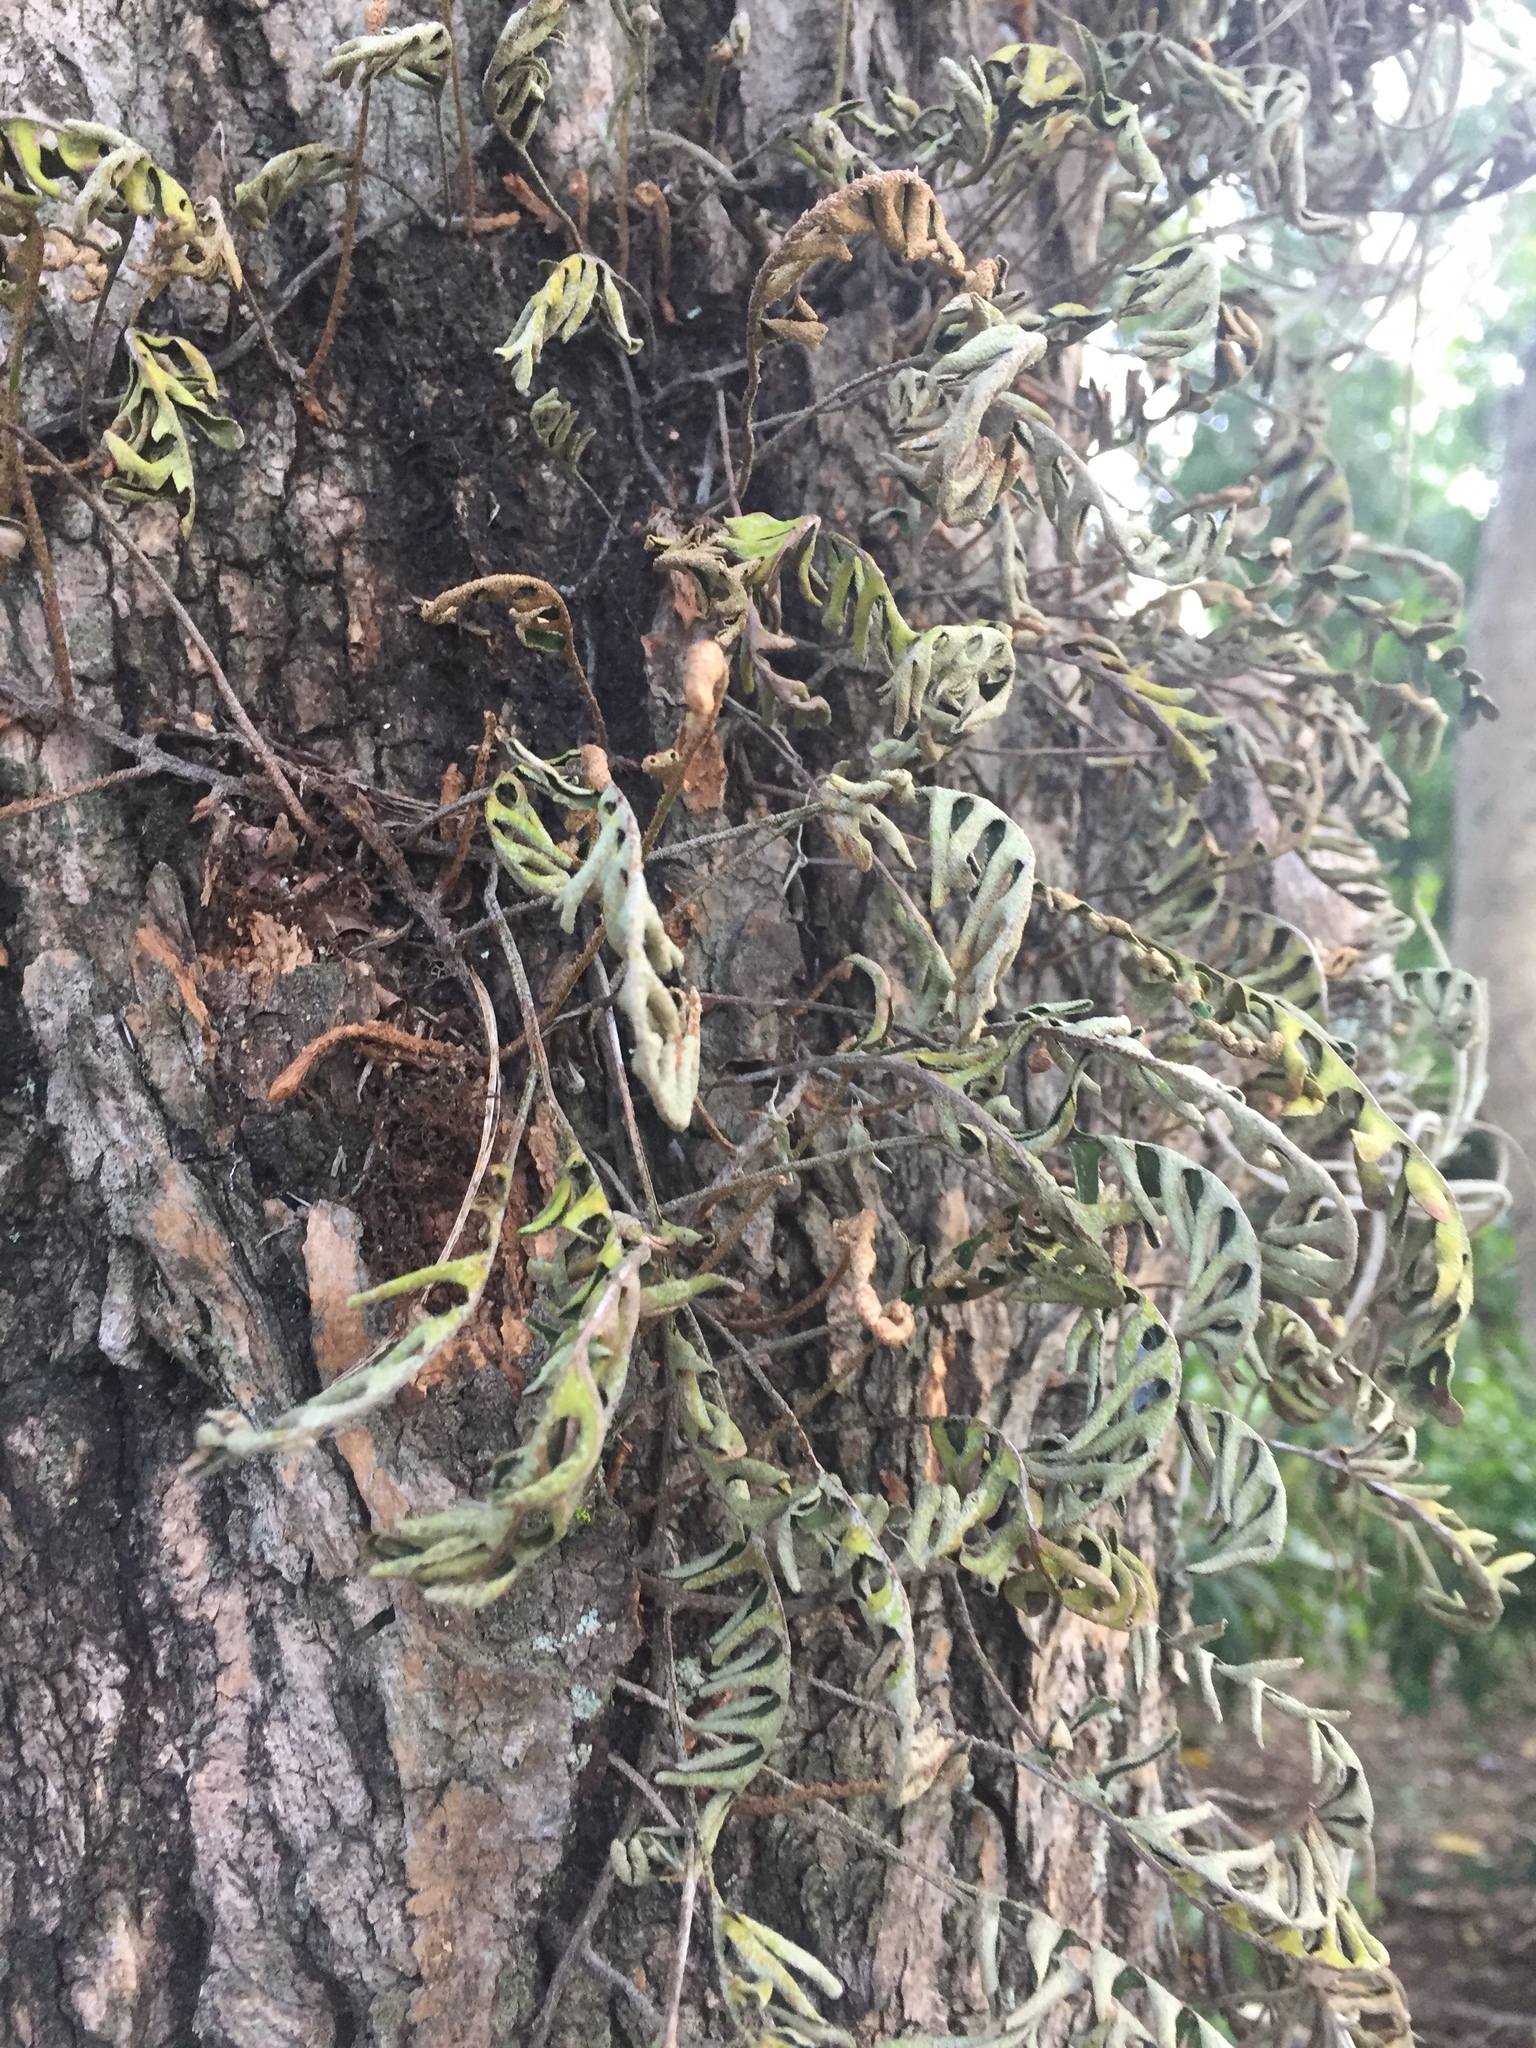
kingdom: Plantae
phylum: Tracheophyta
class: Polypodiopsida
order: Polypodiales
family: Polypodiaceae
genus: Pleopeltis
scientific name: Pleopeltis polypodioides
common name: Resurrection fern
